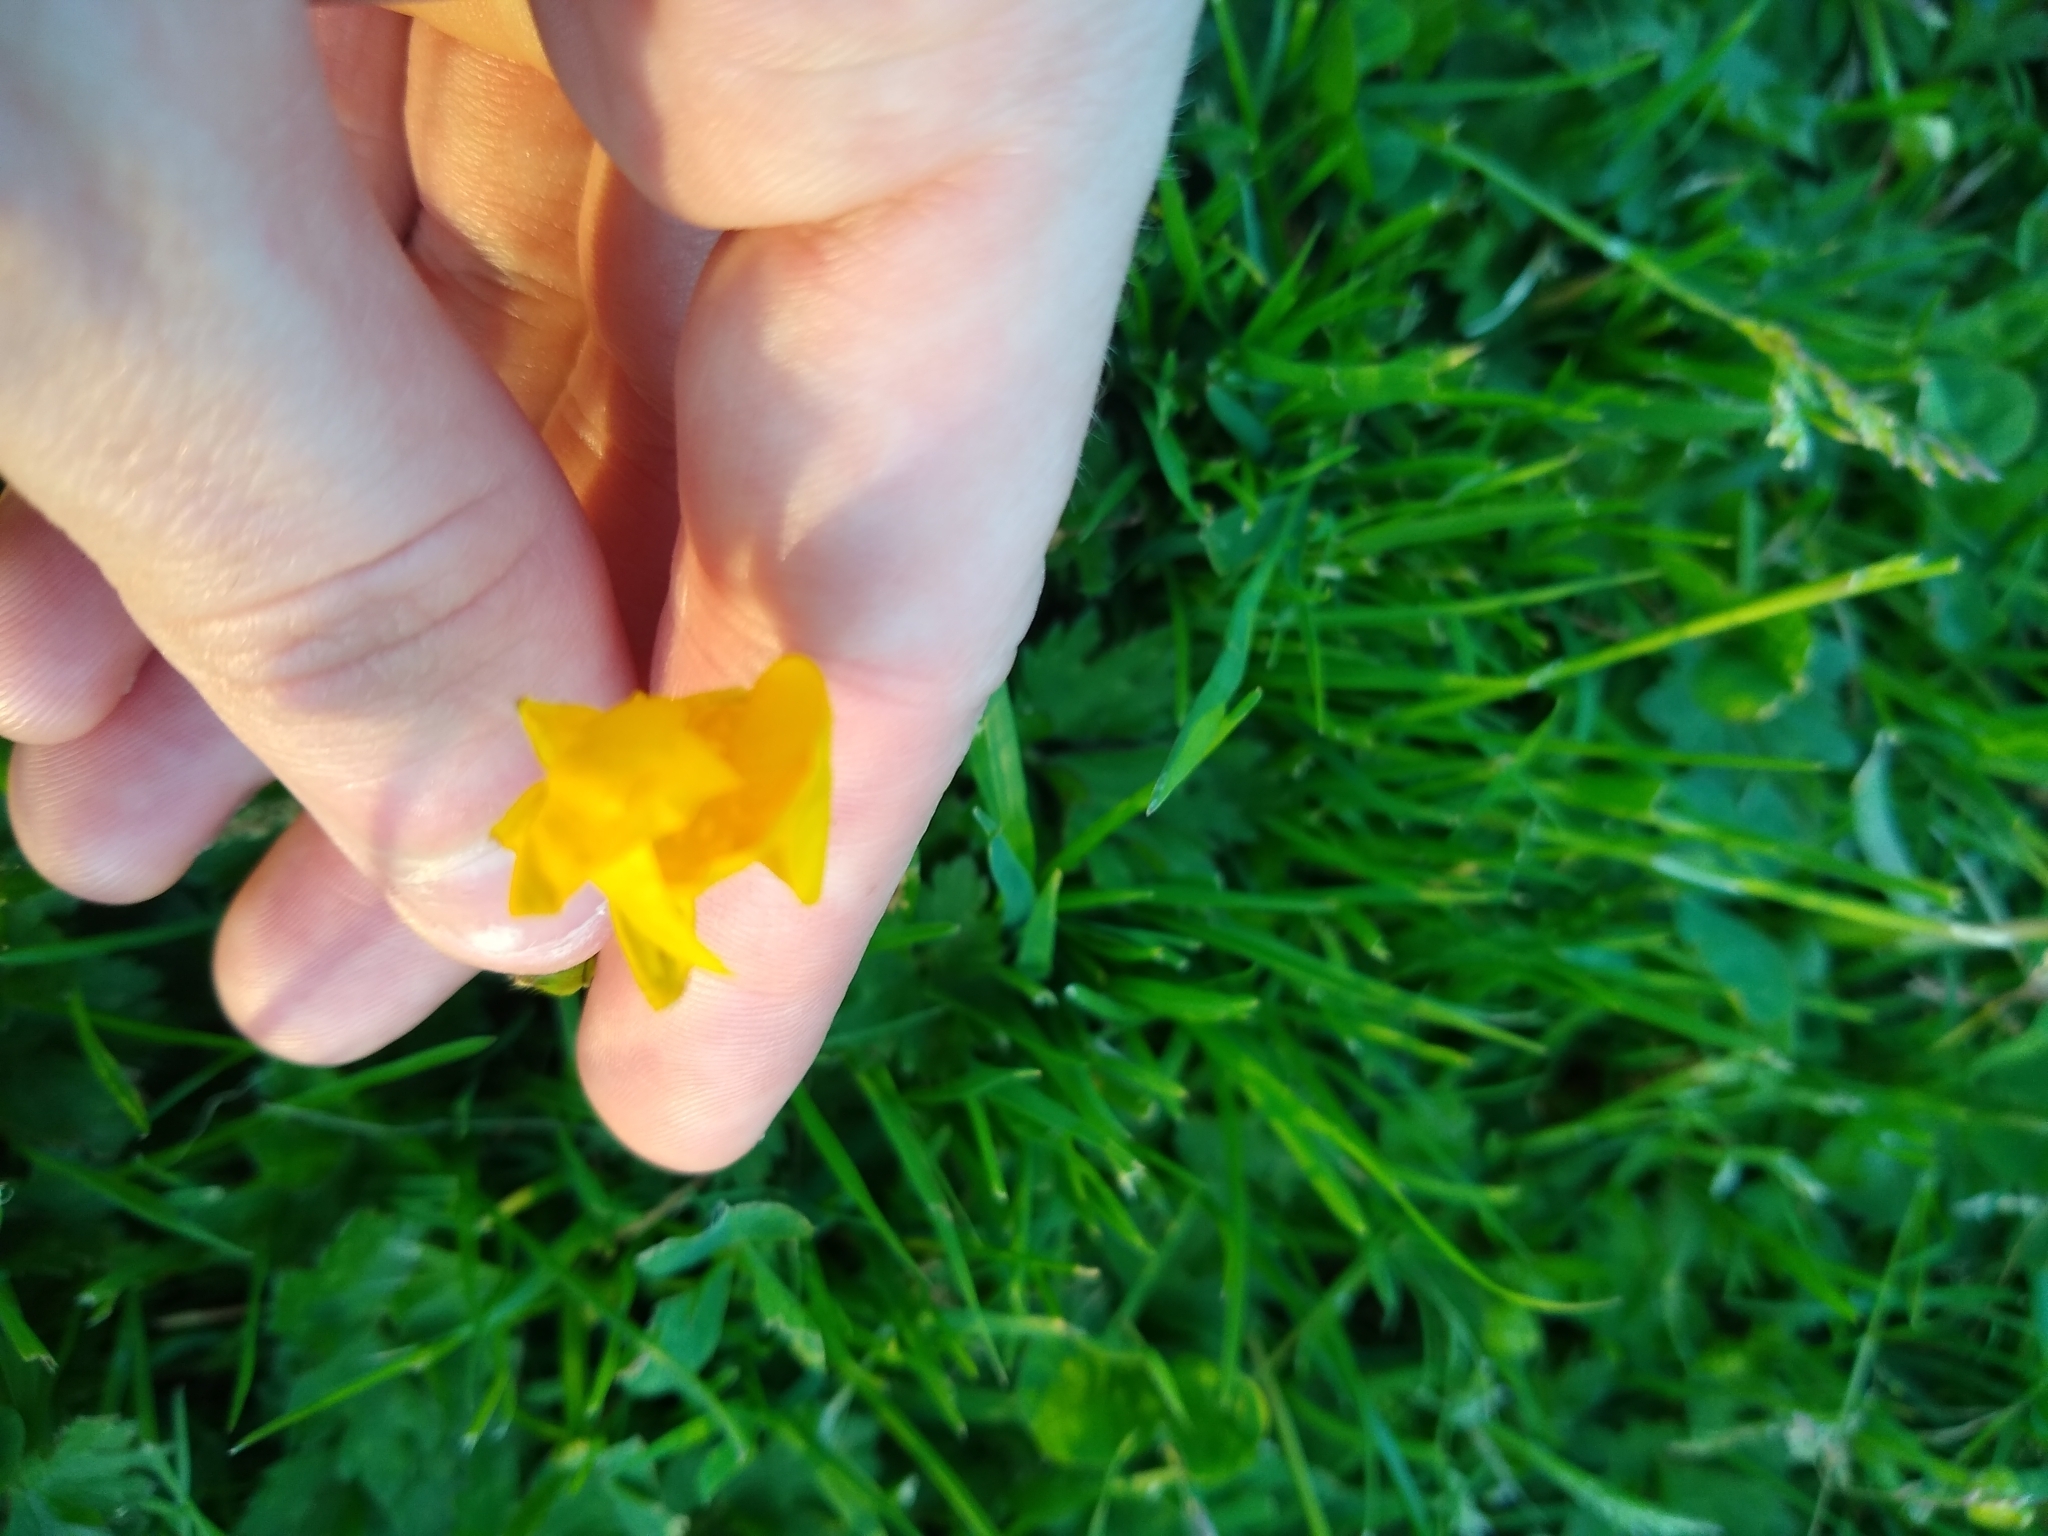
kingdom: Plantae
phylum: Tracheophyta
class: Magnoliopsida
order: Ranunculales
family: Ranunculaceae
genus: Ranunculus
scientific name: Ranunculus repens
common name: Creeping buttercup
